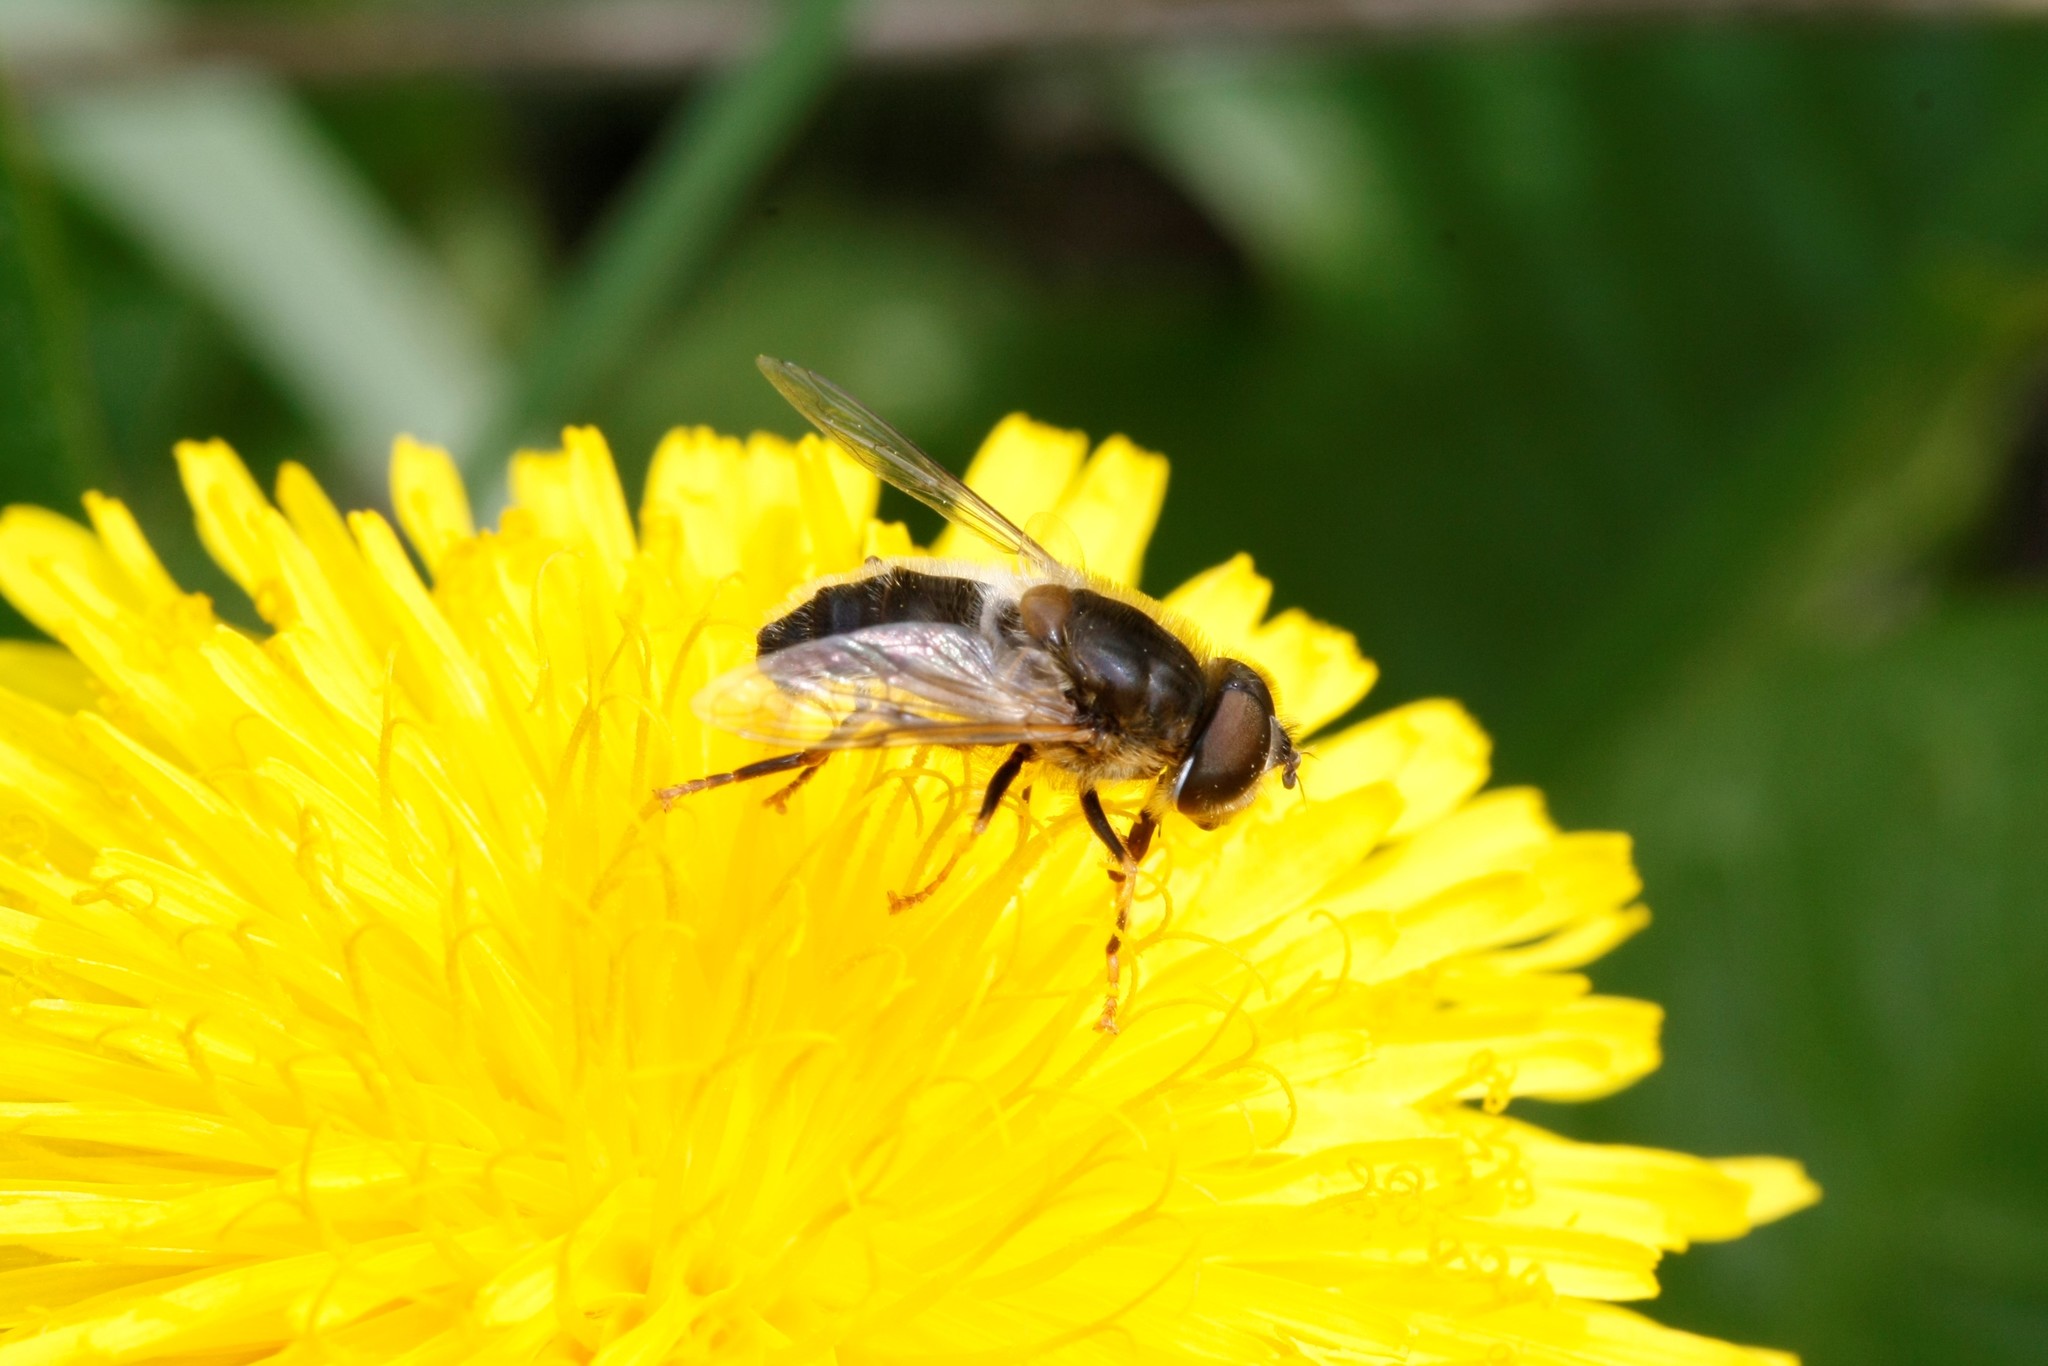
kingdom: Animalia
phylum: Arthropoda
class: Insecta
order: Diptera
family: Syrphidae
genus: Eristalis
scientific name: Eristalis pertinax
